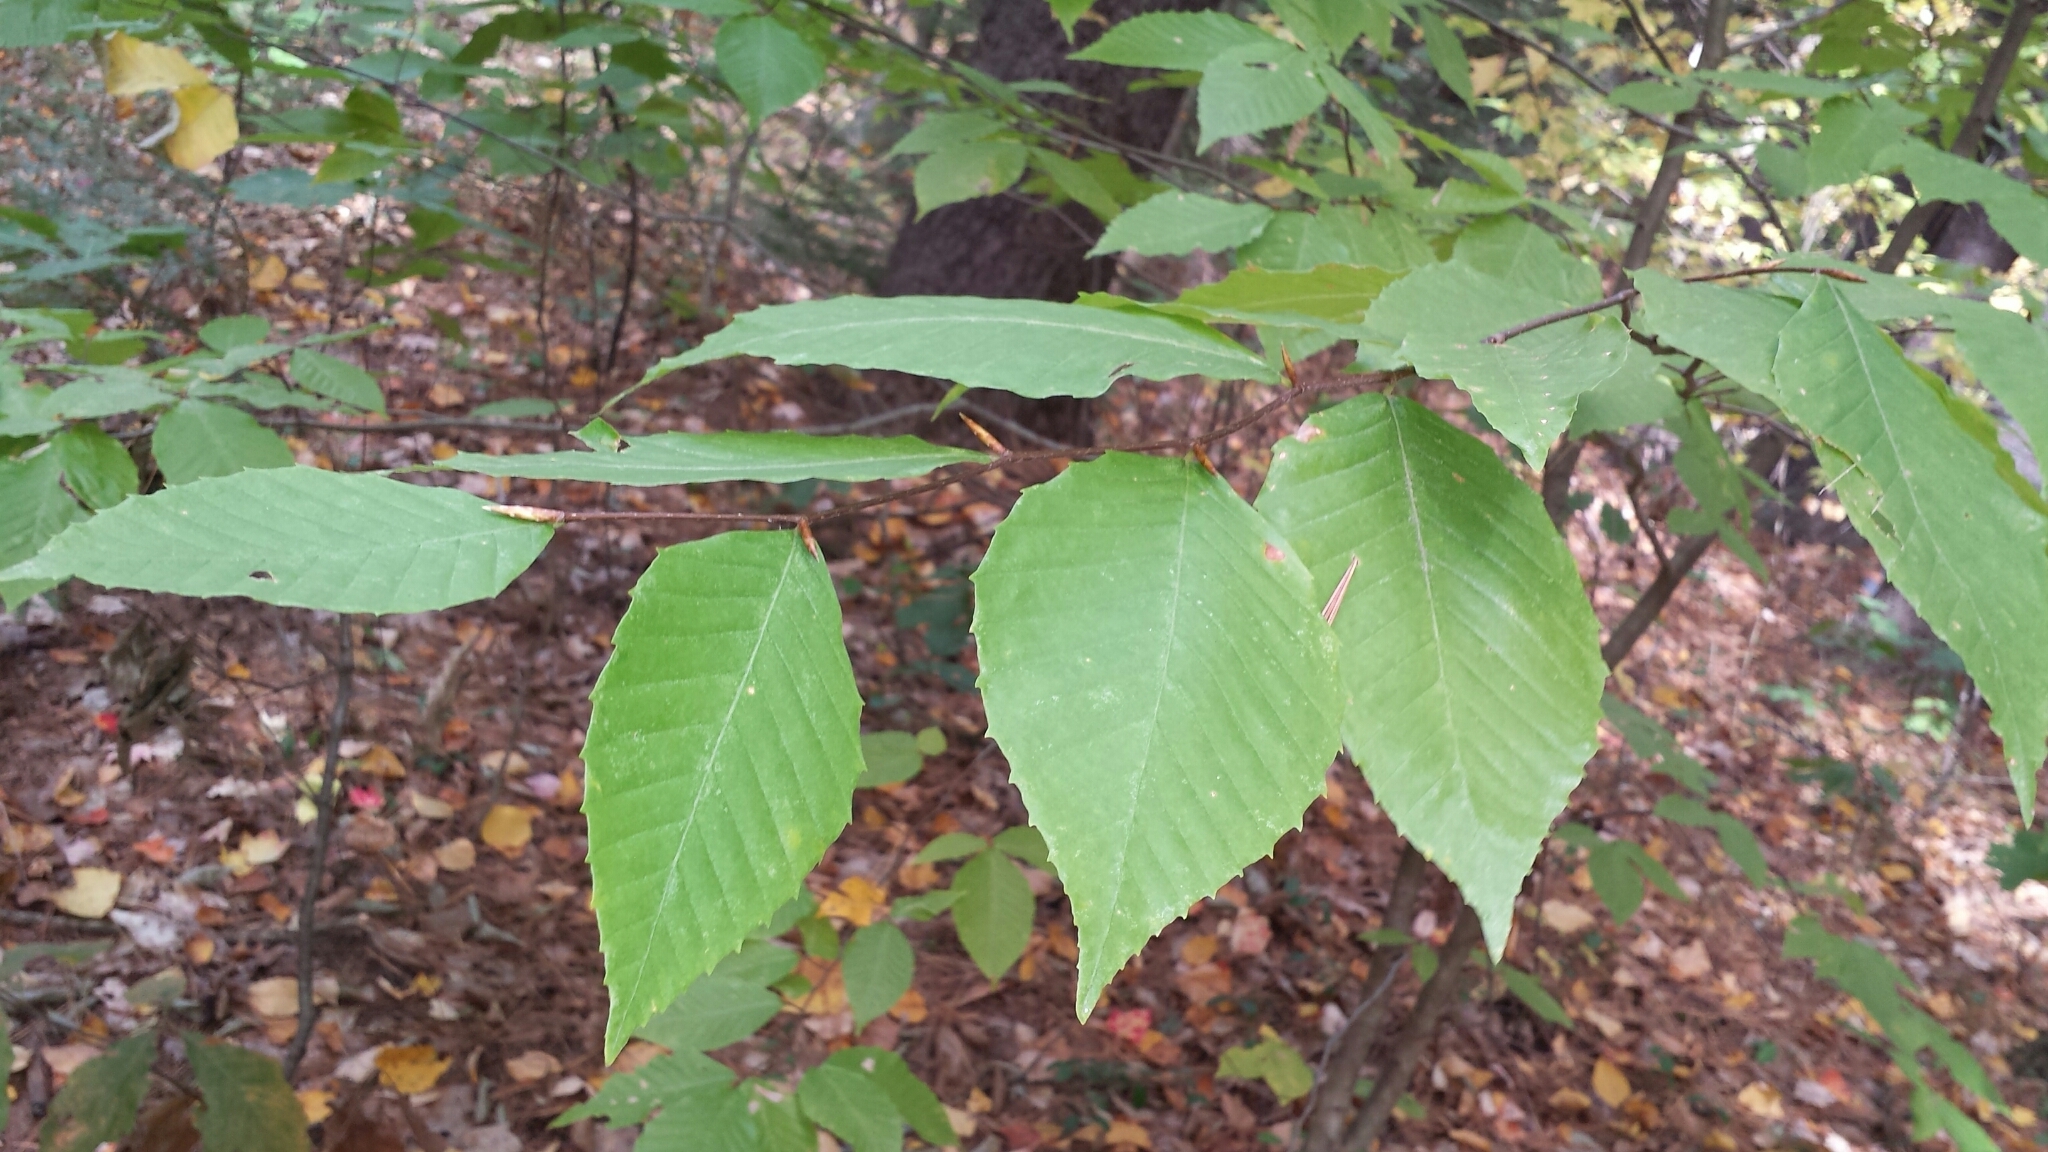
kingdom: Plantae
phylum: Tracheophyta
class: Magnoliopsida
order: Fagales
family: Fagaceae
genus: Fagus
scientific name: Fagus grandifolia
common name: American beech
